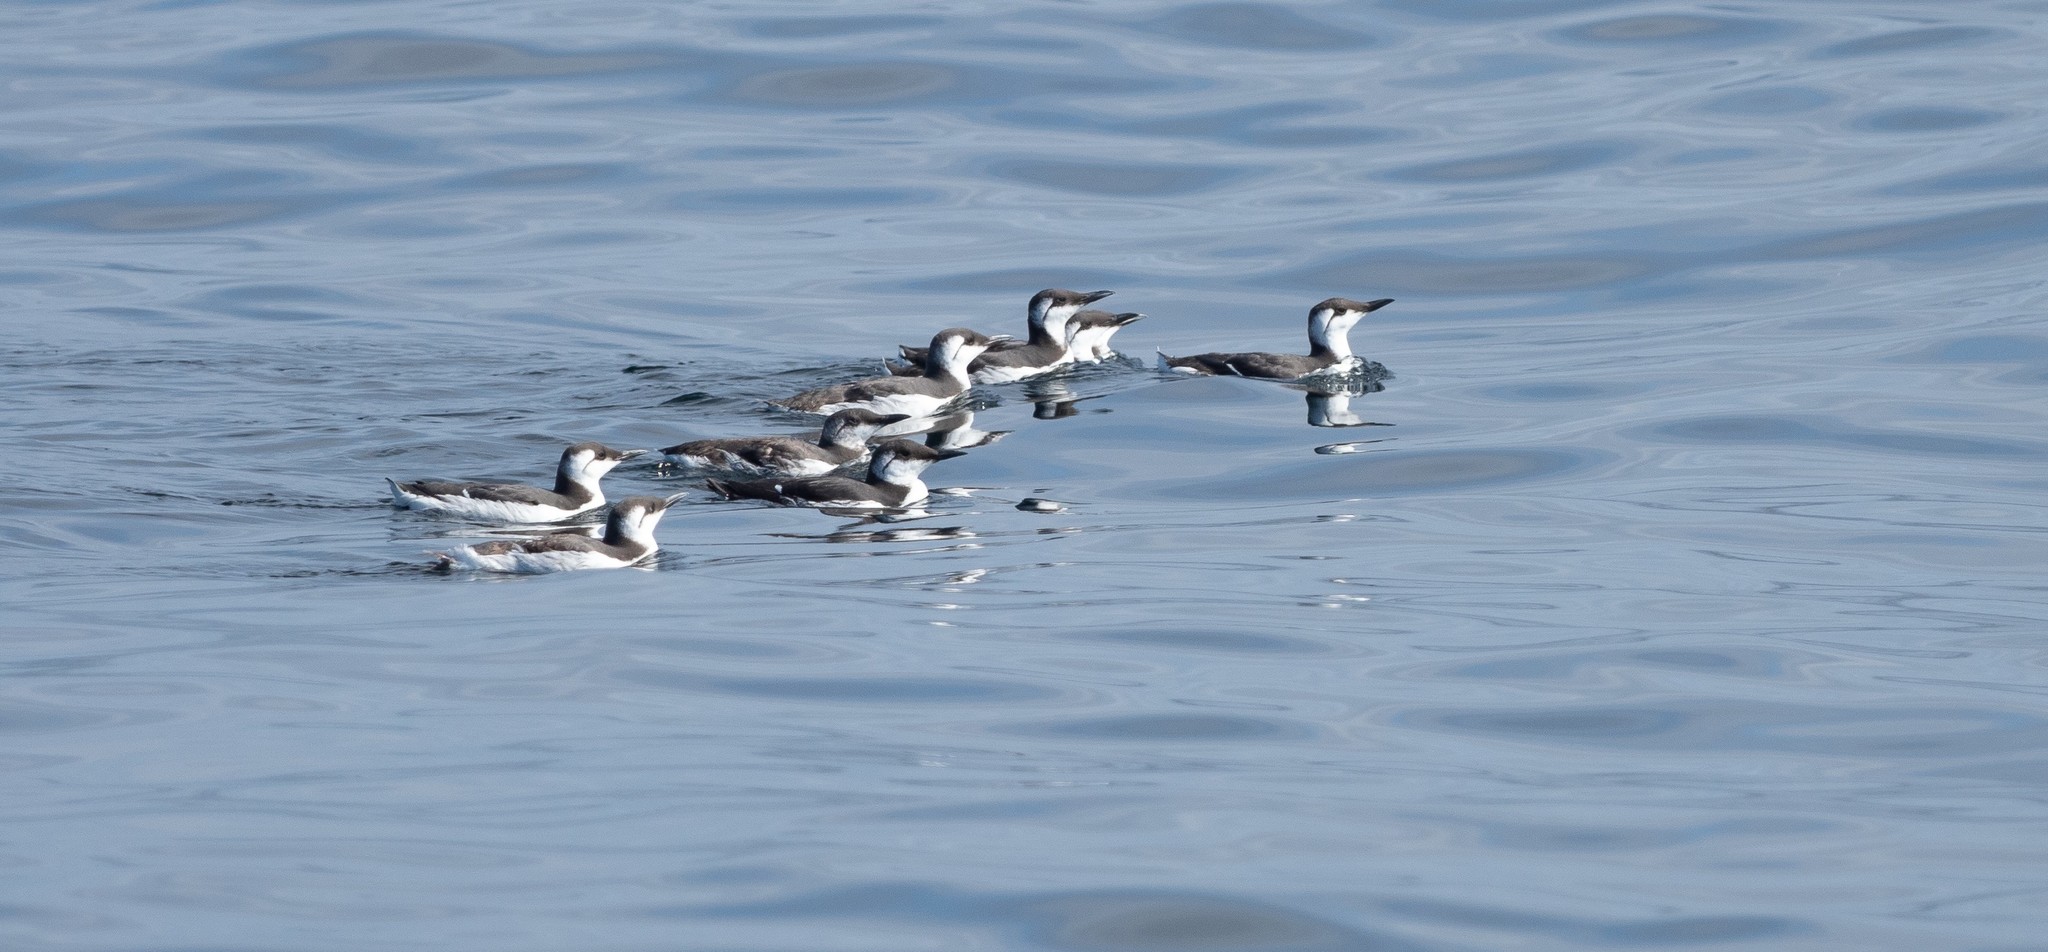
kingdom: Animalia
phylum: Chordata
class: Aves
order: Charadriiformes
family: Alcidae
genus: Uria
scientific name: Uria aalge
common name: Common murre
